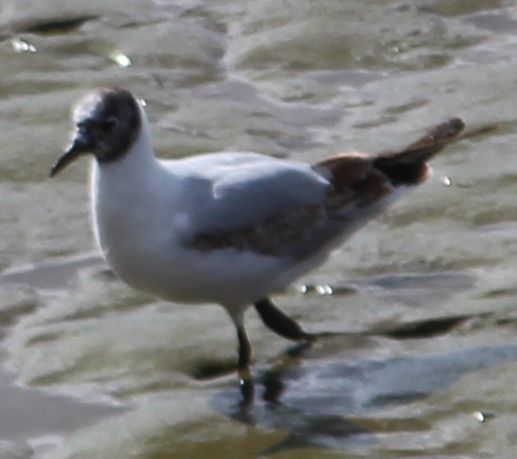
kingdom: Animalia
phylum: Chordata
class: Aves
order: Charadriiformes
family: Laridae
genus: Chroicocephalus
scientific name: Chroicocephalus ridibundus
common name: Black-headed gull
